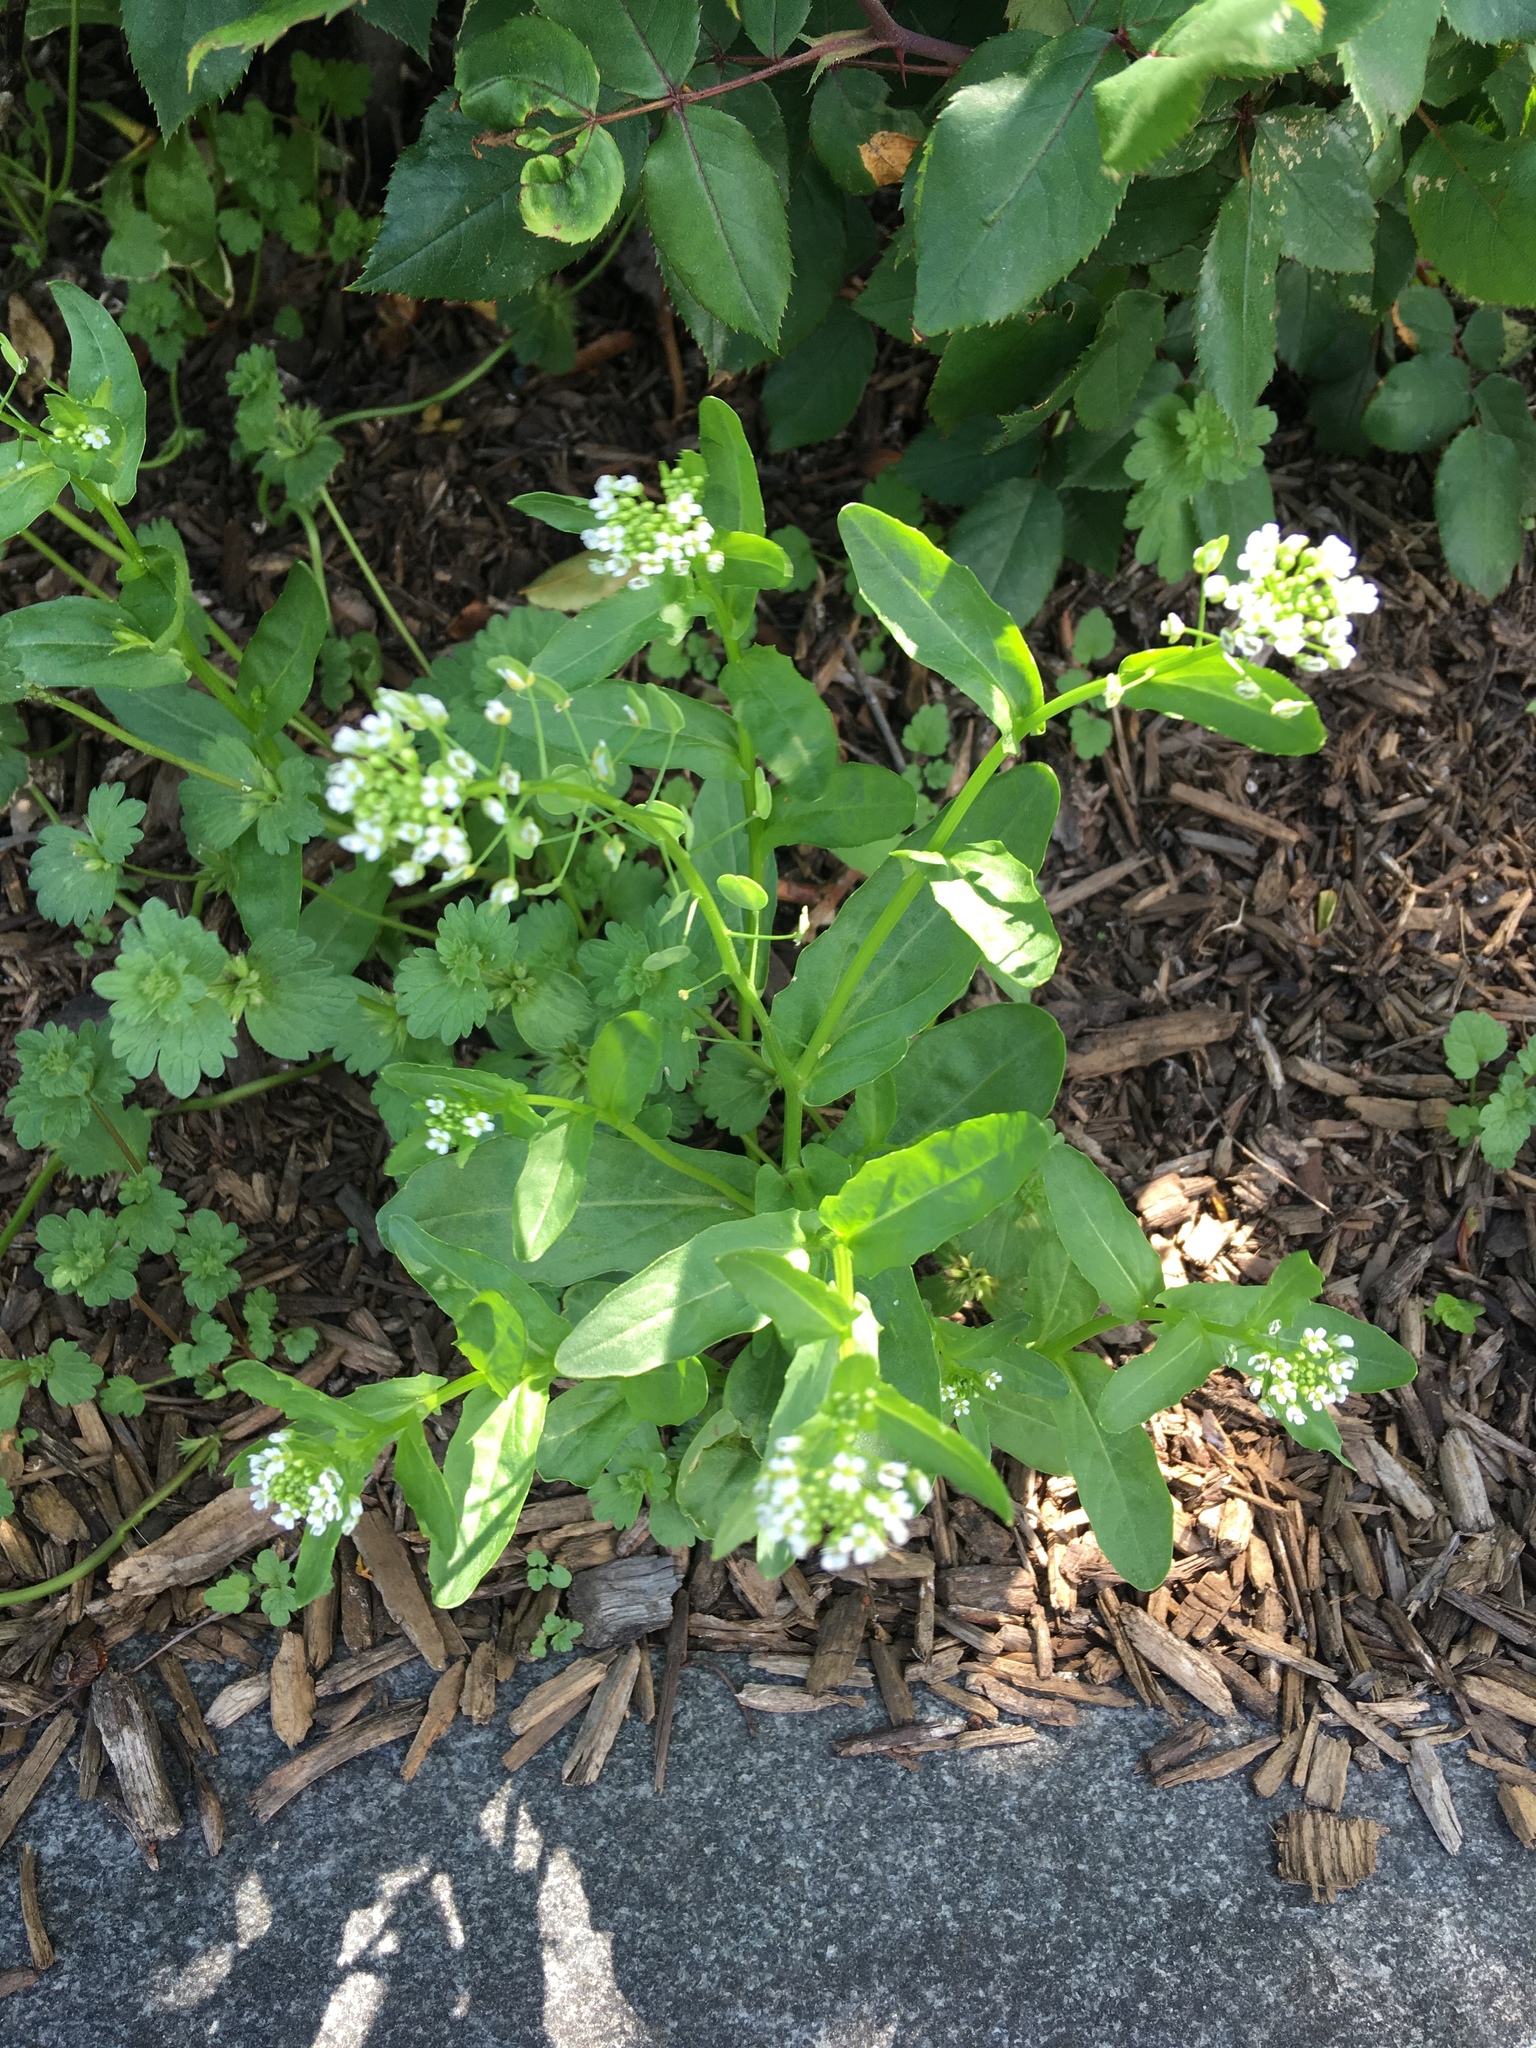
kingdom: Plantae
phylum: Tracheophyta
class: Magnoliopsida
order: Brassicales
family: Brassicaceae
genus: Thlaspi
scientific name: Thlaspi arvense
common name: Field pennycress
